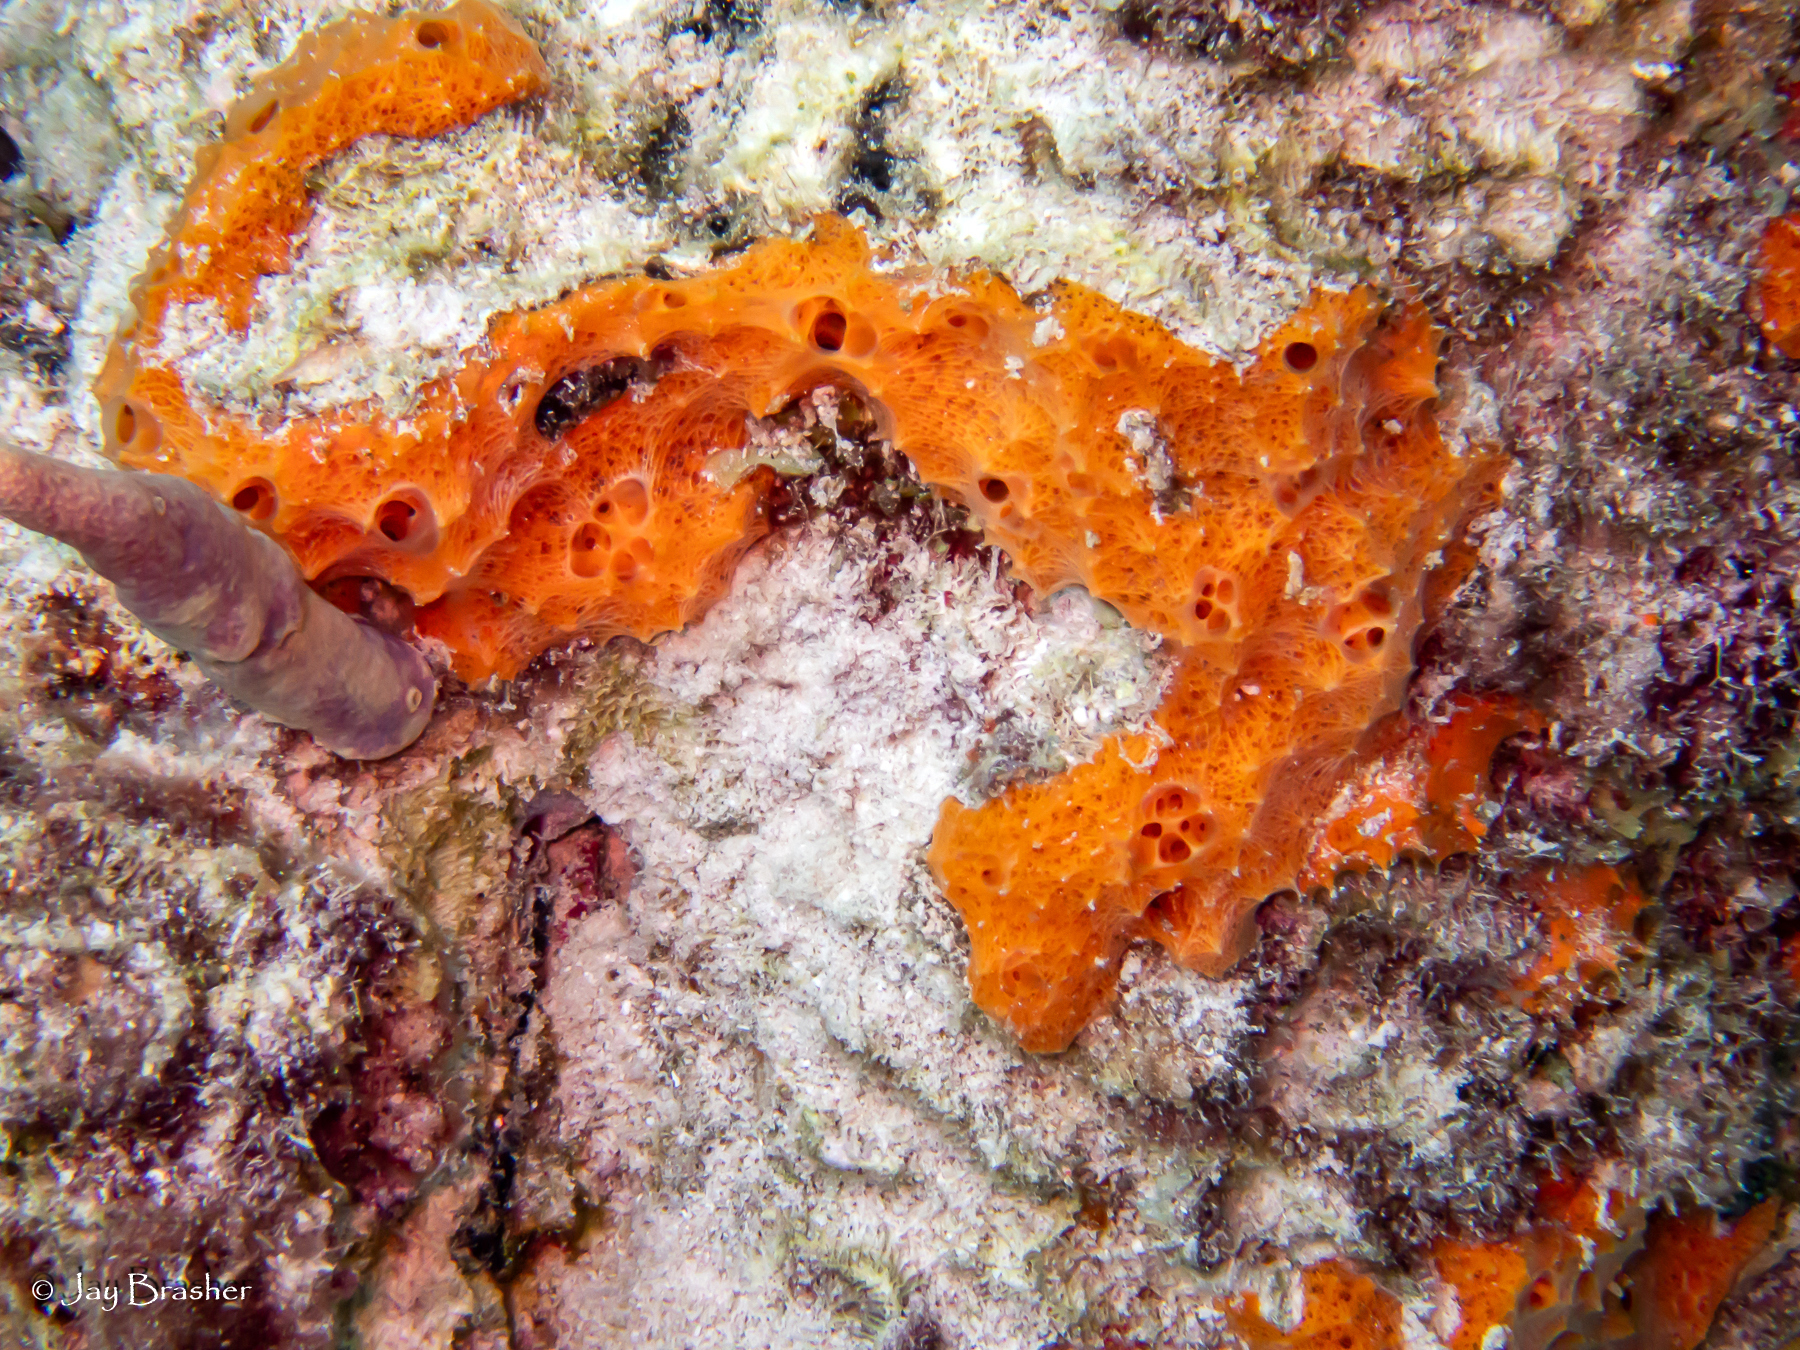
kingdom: Animalia
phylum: Porifera
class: Demospongiae
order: Scopalinida
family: Scopalinidae
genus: Scopalina
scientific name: Scopalina ruetzleri
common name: Orange lumpy encrusting sponge
